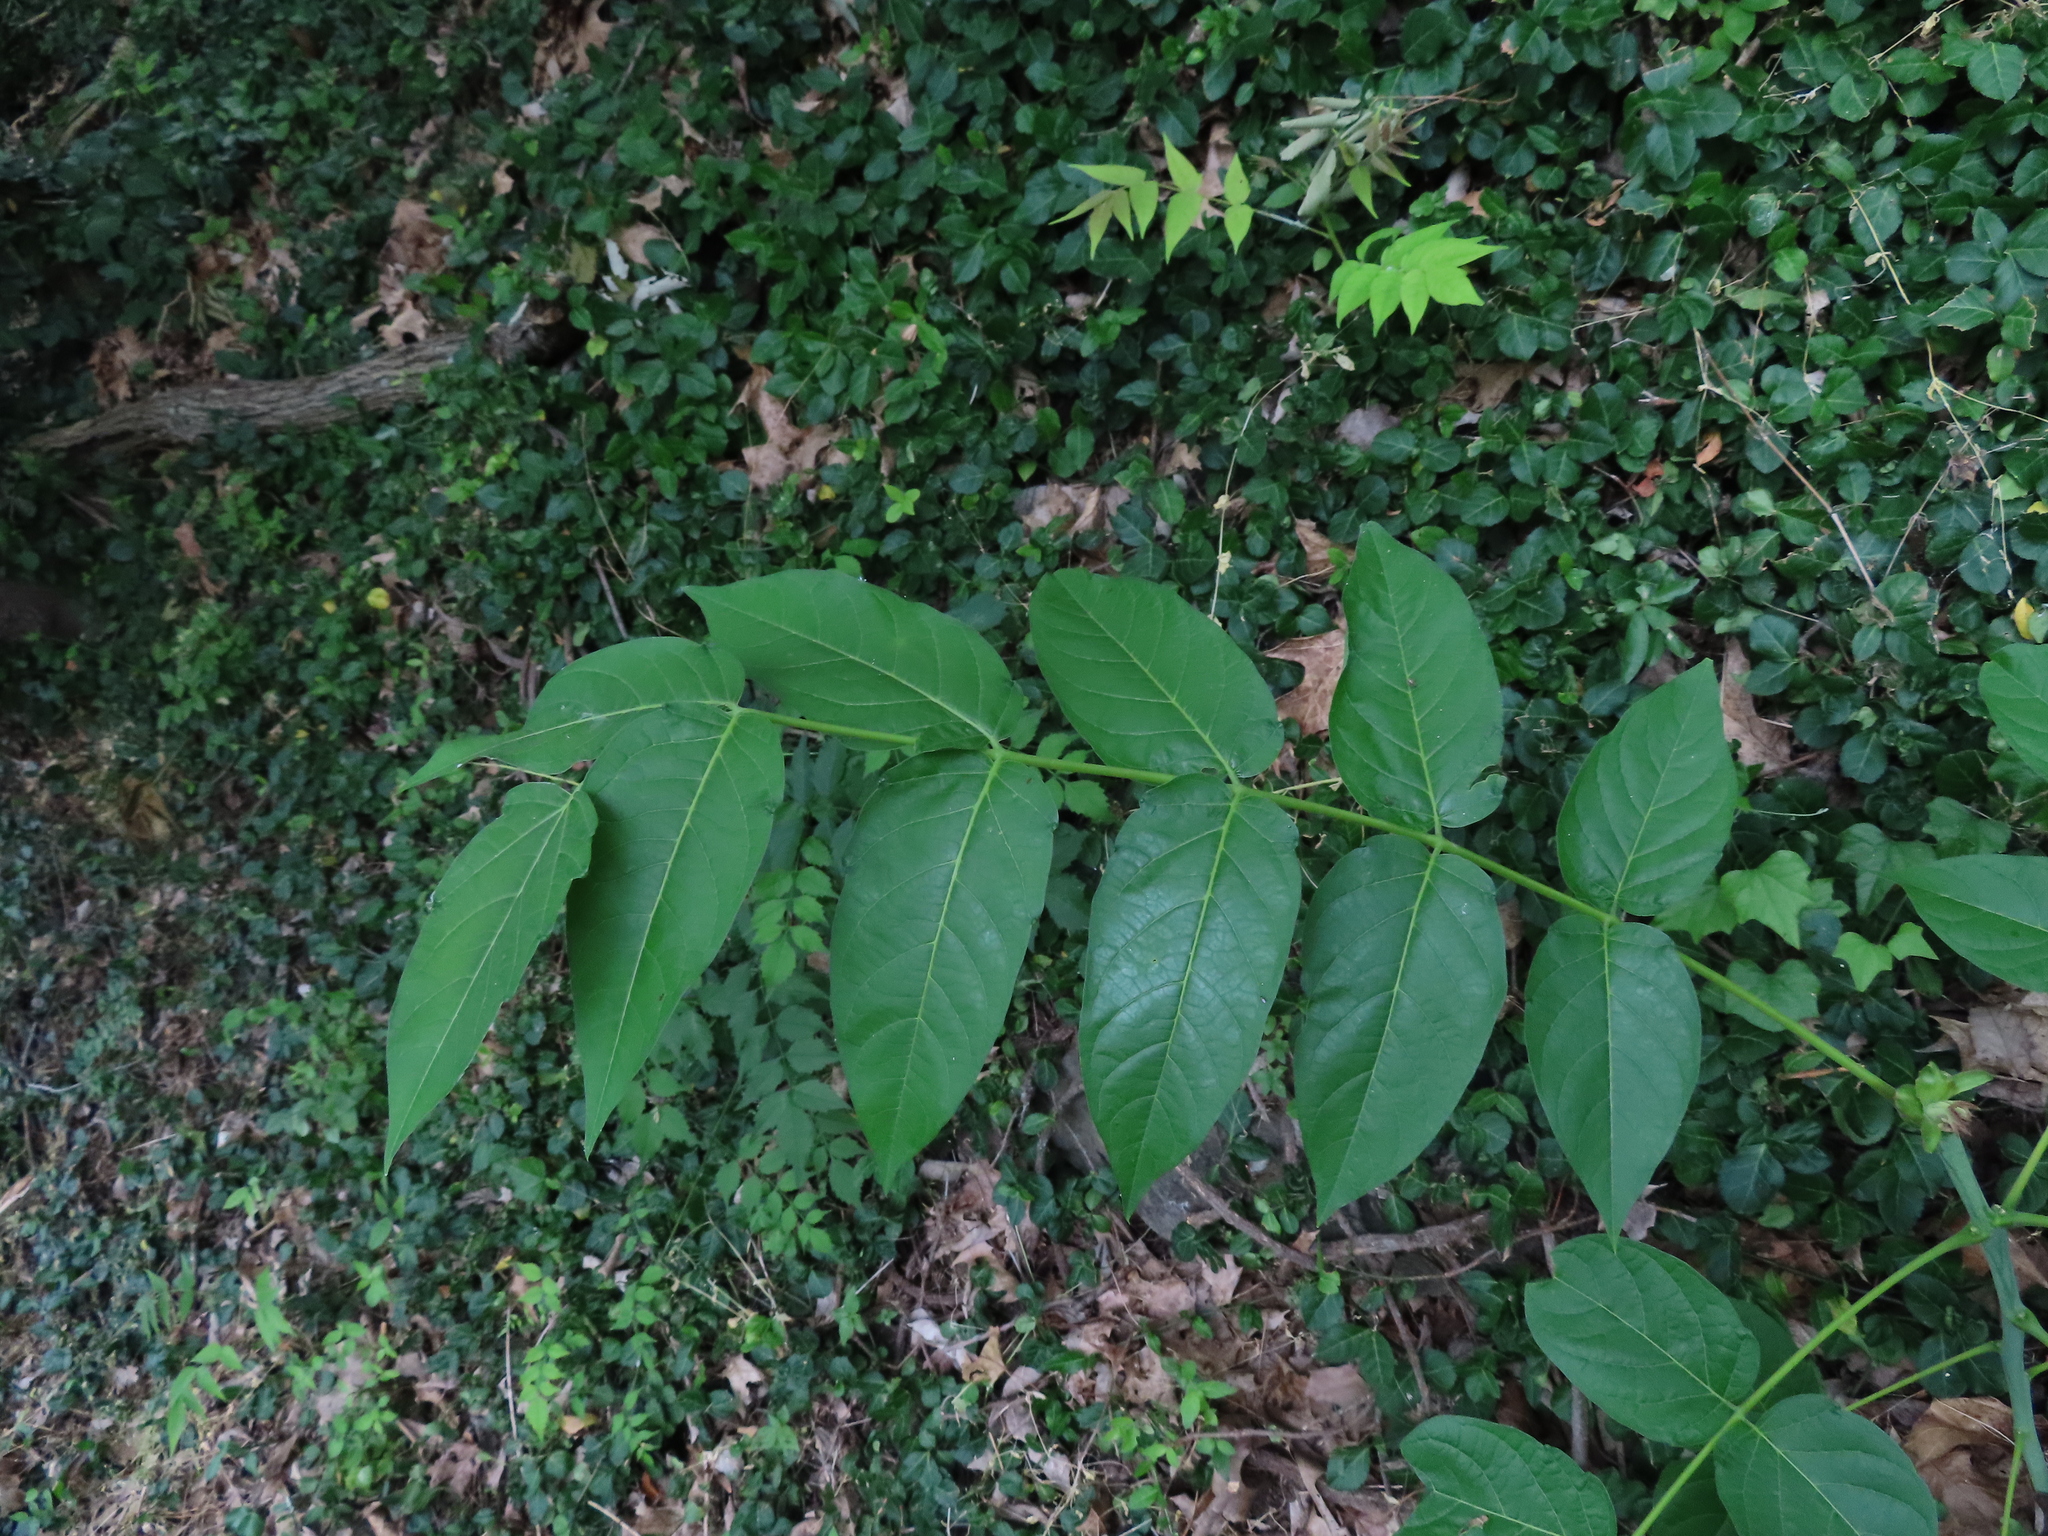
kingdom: Plantae
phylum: Tracheophyta
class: Magnoliopsida
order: Sapindales
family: Simaroubaceae
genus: Ailanthus
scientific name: Ailanthus altissima
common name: Tree-of-heaven
